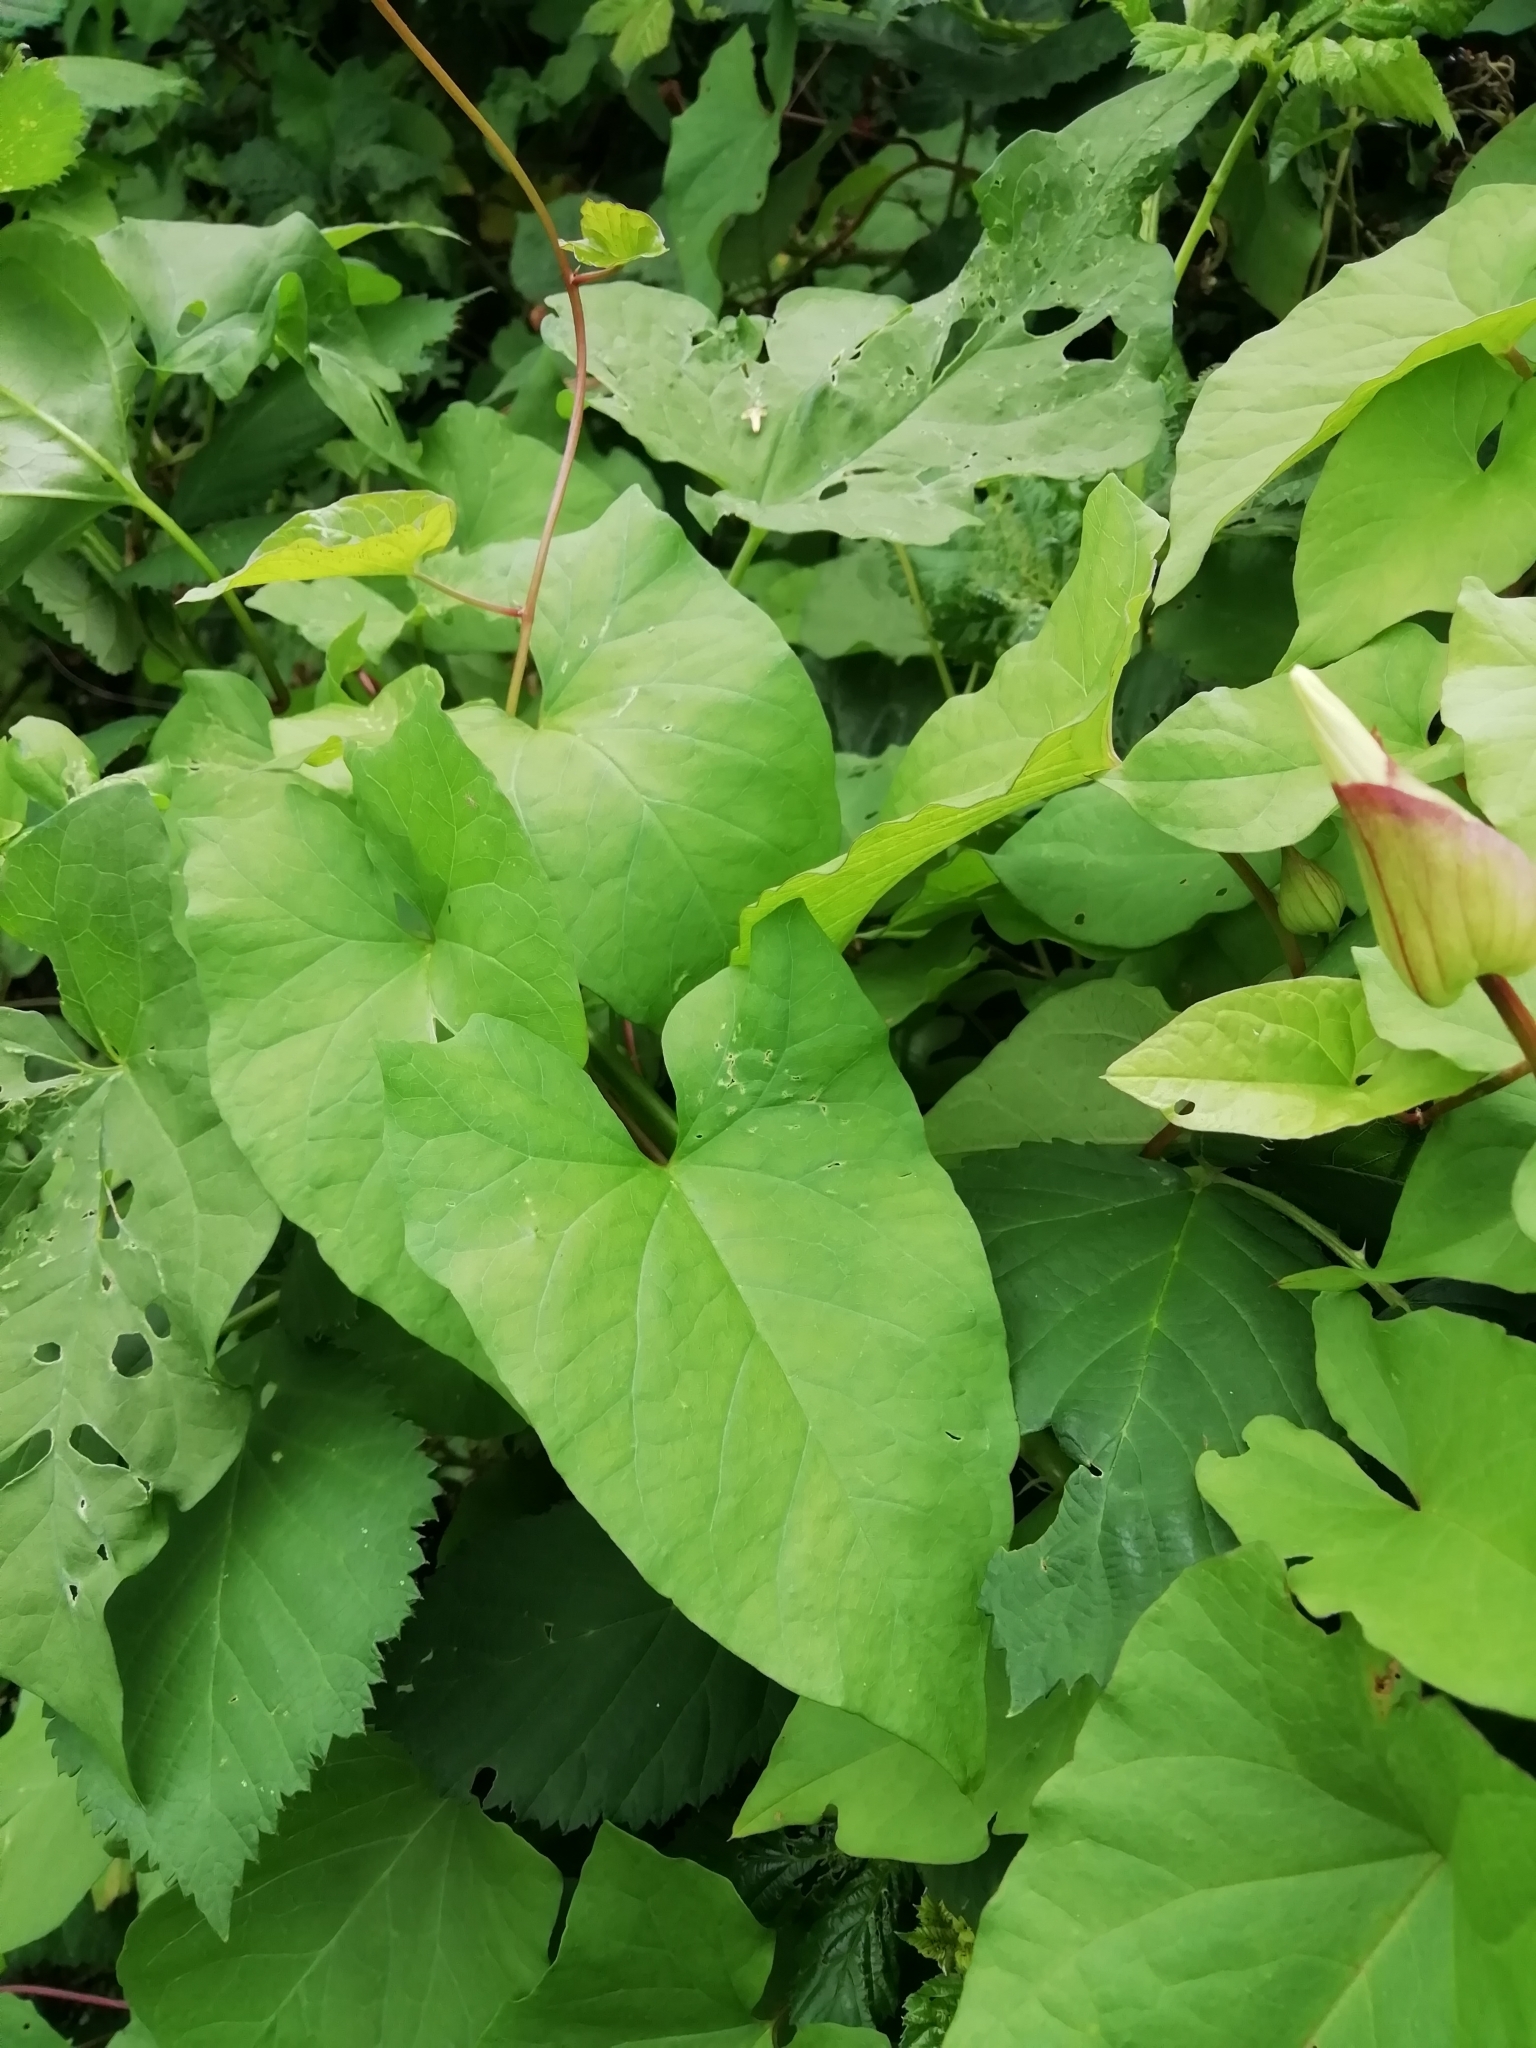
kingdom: Plantae
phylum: Tracheophyta
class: Magnoliopsida
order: Solanales
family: Convolvulaceae
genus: Calystegia
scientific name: Calystegia silvatica
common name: Large bindweed
